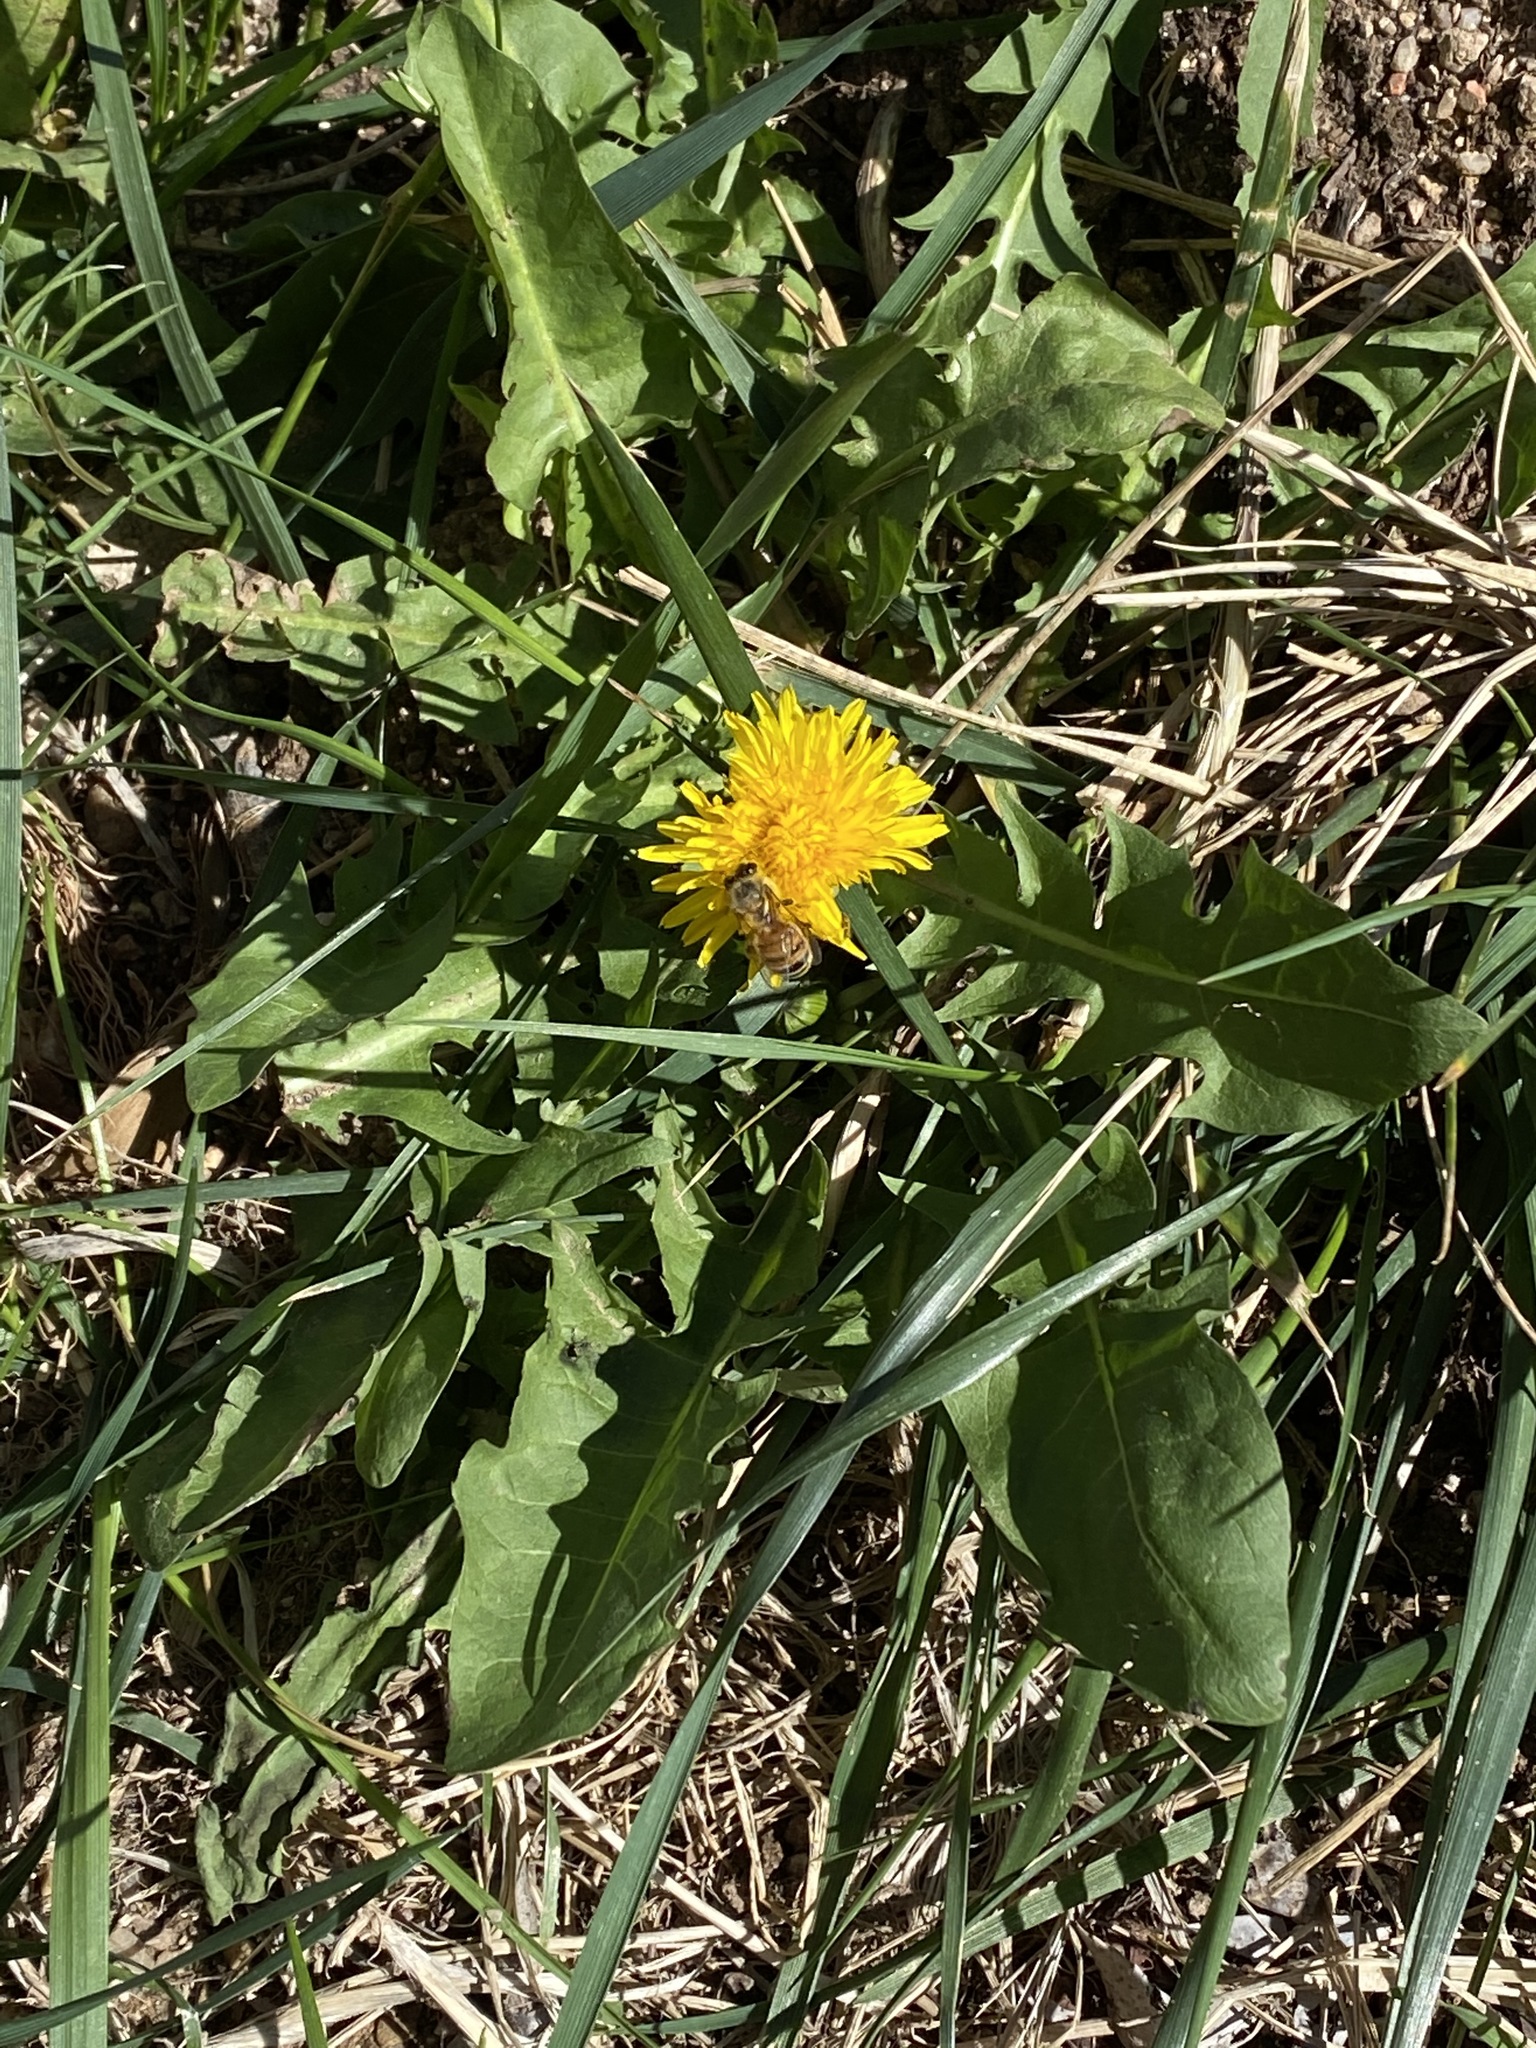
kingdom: Animalia
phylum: Arthropoda
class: Insecta
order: Hymenoptera
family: Apidae
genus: Apis
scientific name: Apis mellifera
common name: Honey bee
